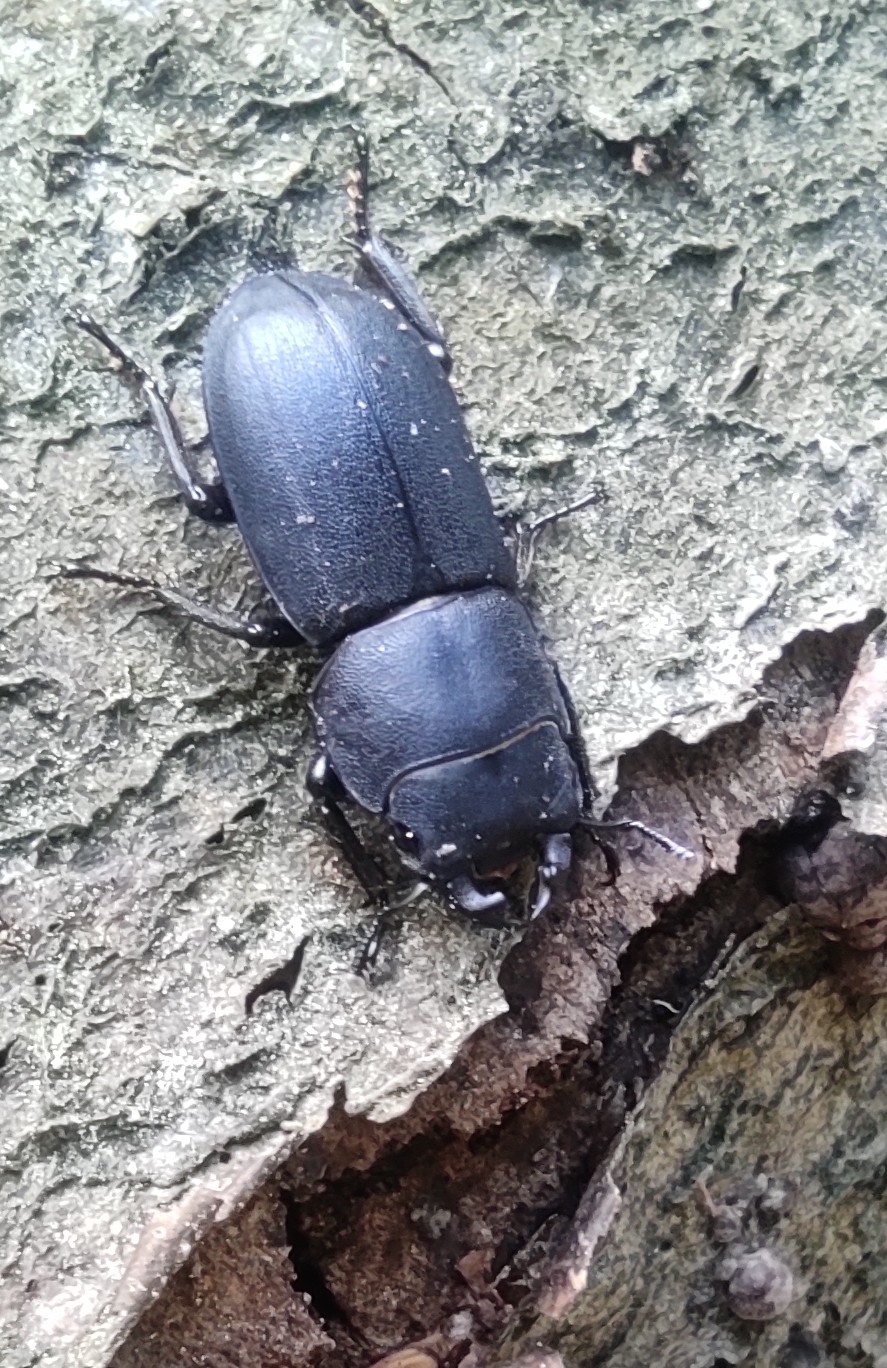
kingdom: Animalia
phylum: Arthropoda
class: Insecta
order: Coleoptera
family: Lucanidae
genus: Dorcus
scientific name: Dorcus parallelipipedus
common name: Lesser stag beetle
